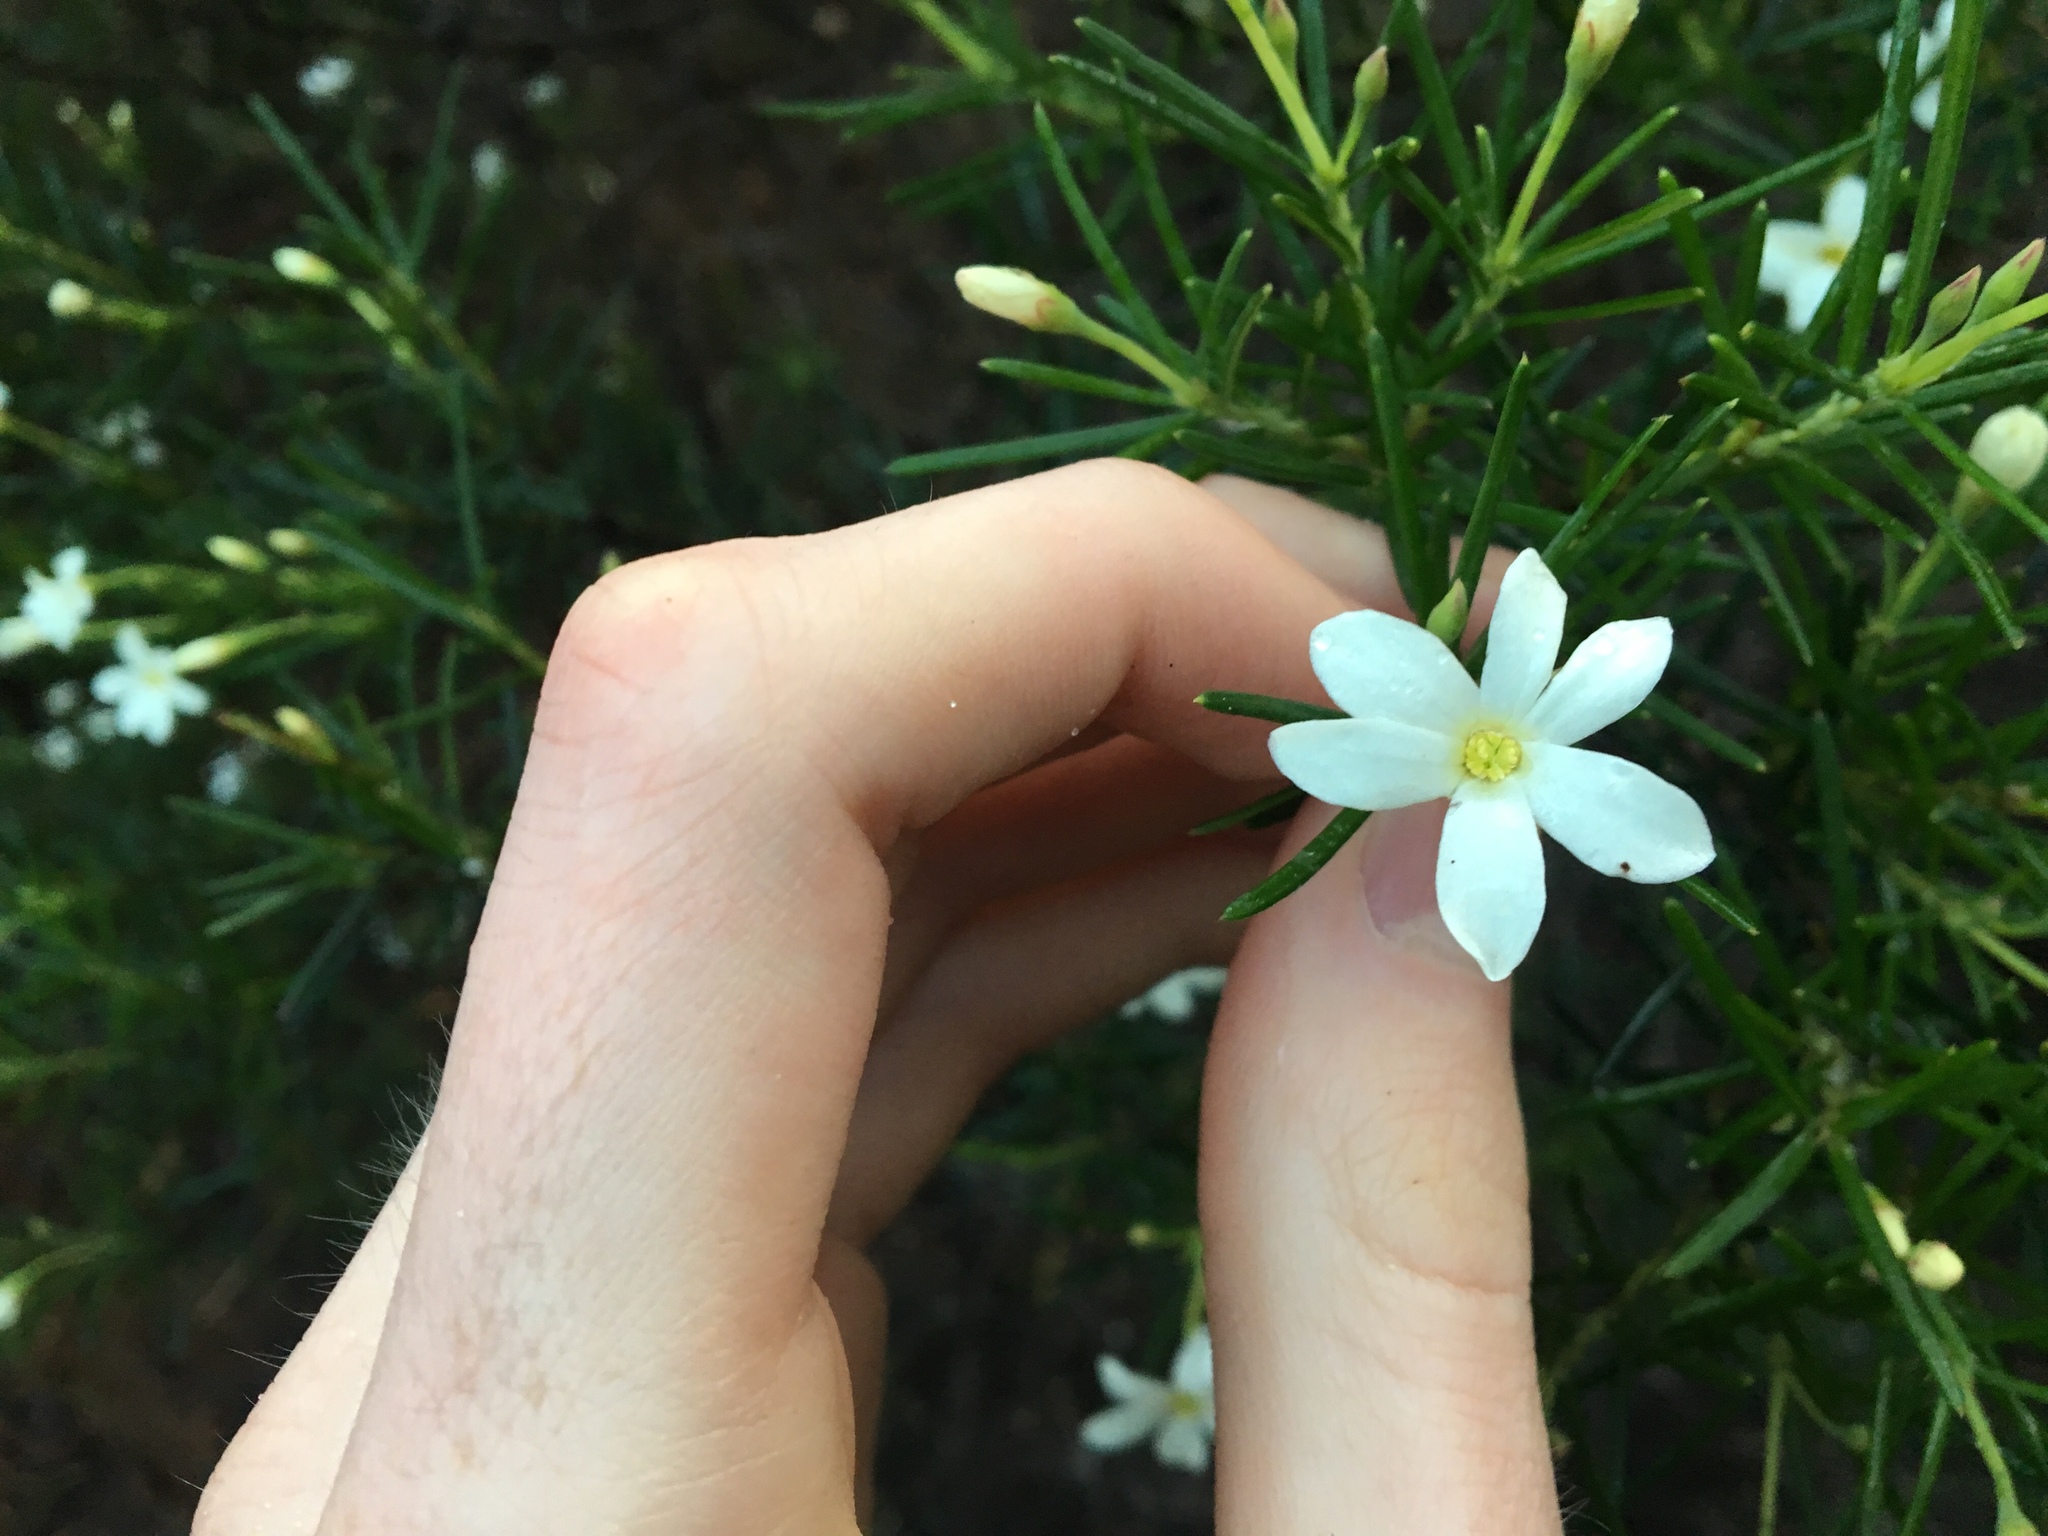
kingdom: Plantae
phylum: Tracheophyta
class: Magnoliopsida
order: Malpighiales
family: Euphorbiaceae
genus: Ricinocarpos
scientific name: Ricinocarpos pinifolius
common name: Weddingbush
